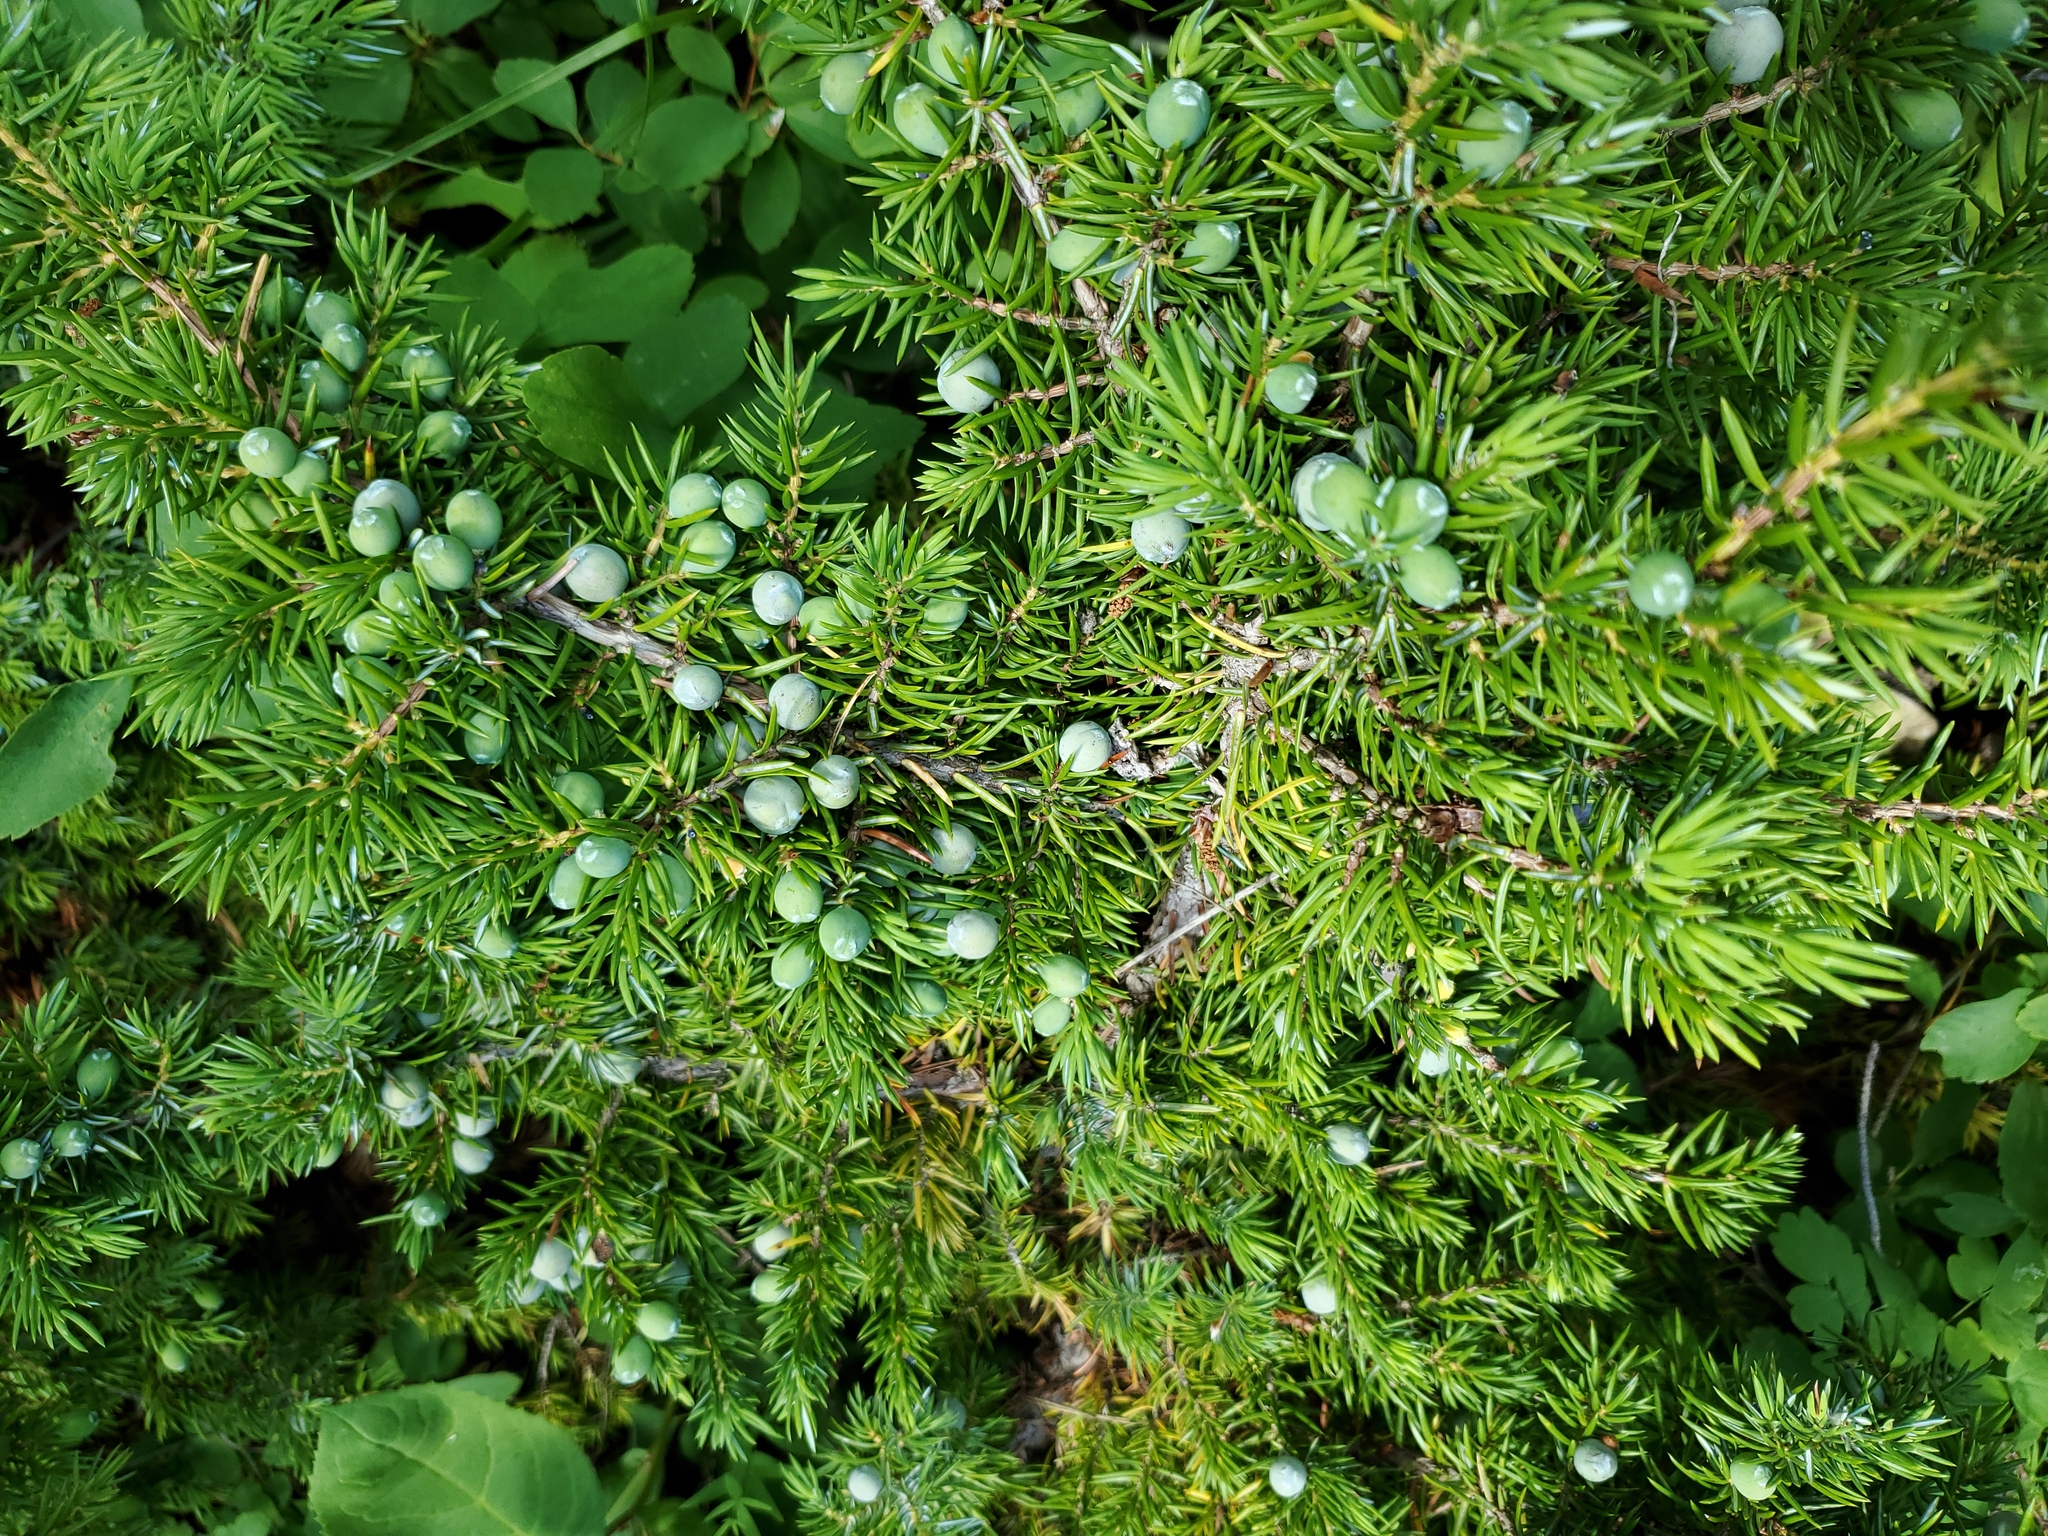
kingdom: Plantae
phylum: Tracheophyta
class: Pinopsida
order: Pinales
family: Cupressaceae
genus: Juniperus
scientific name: Juniperus communis
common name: Common juniper
